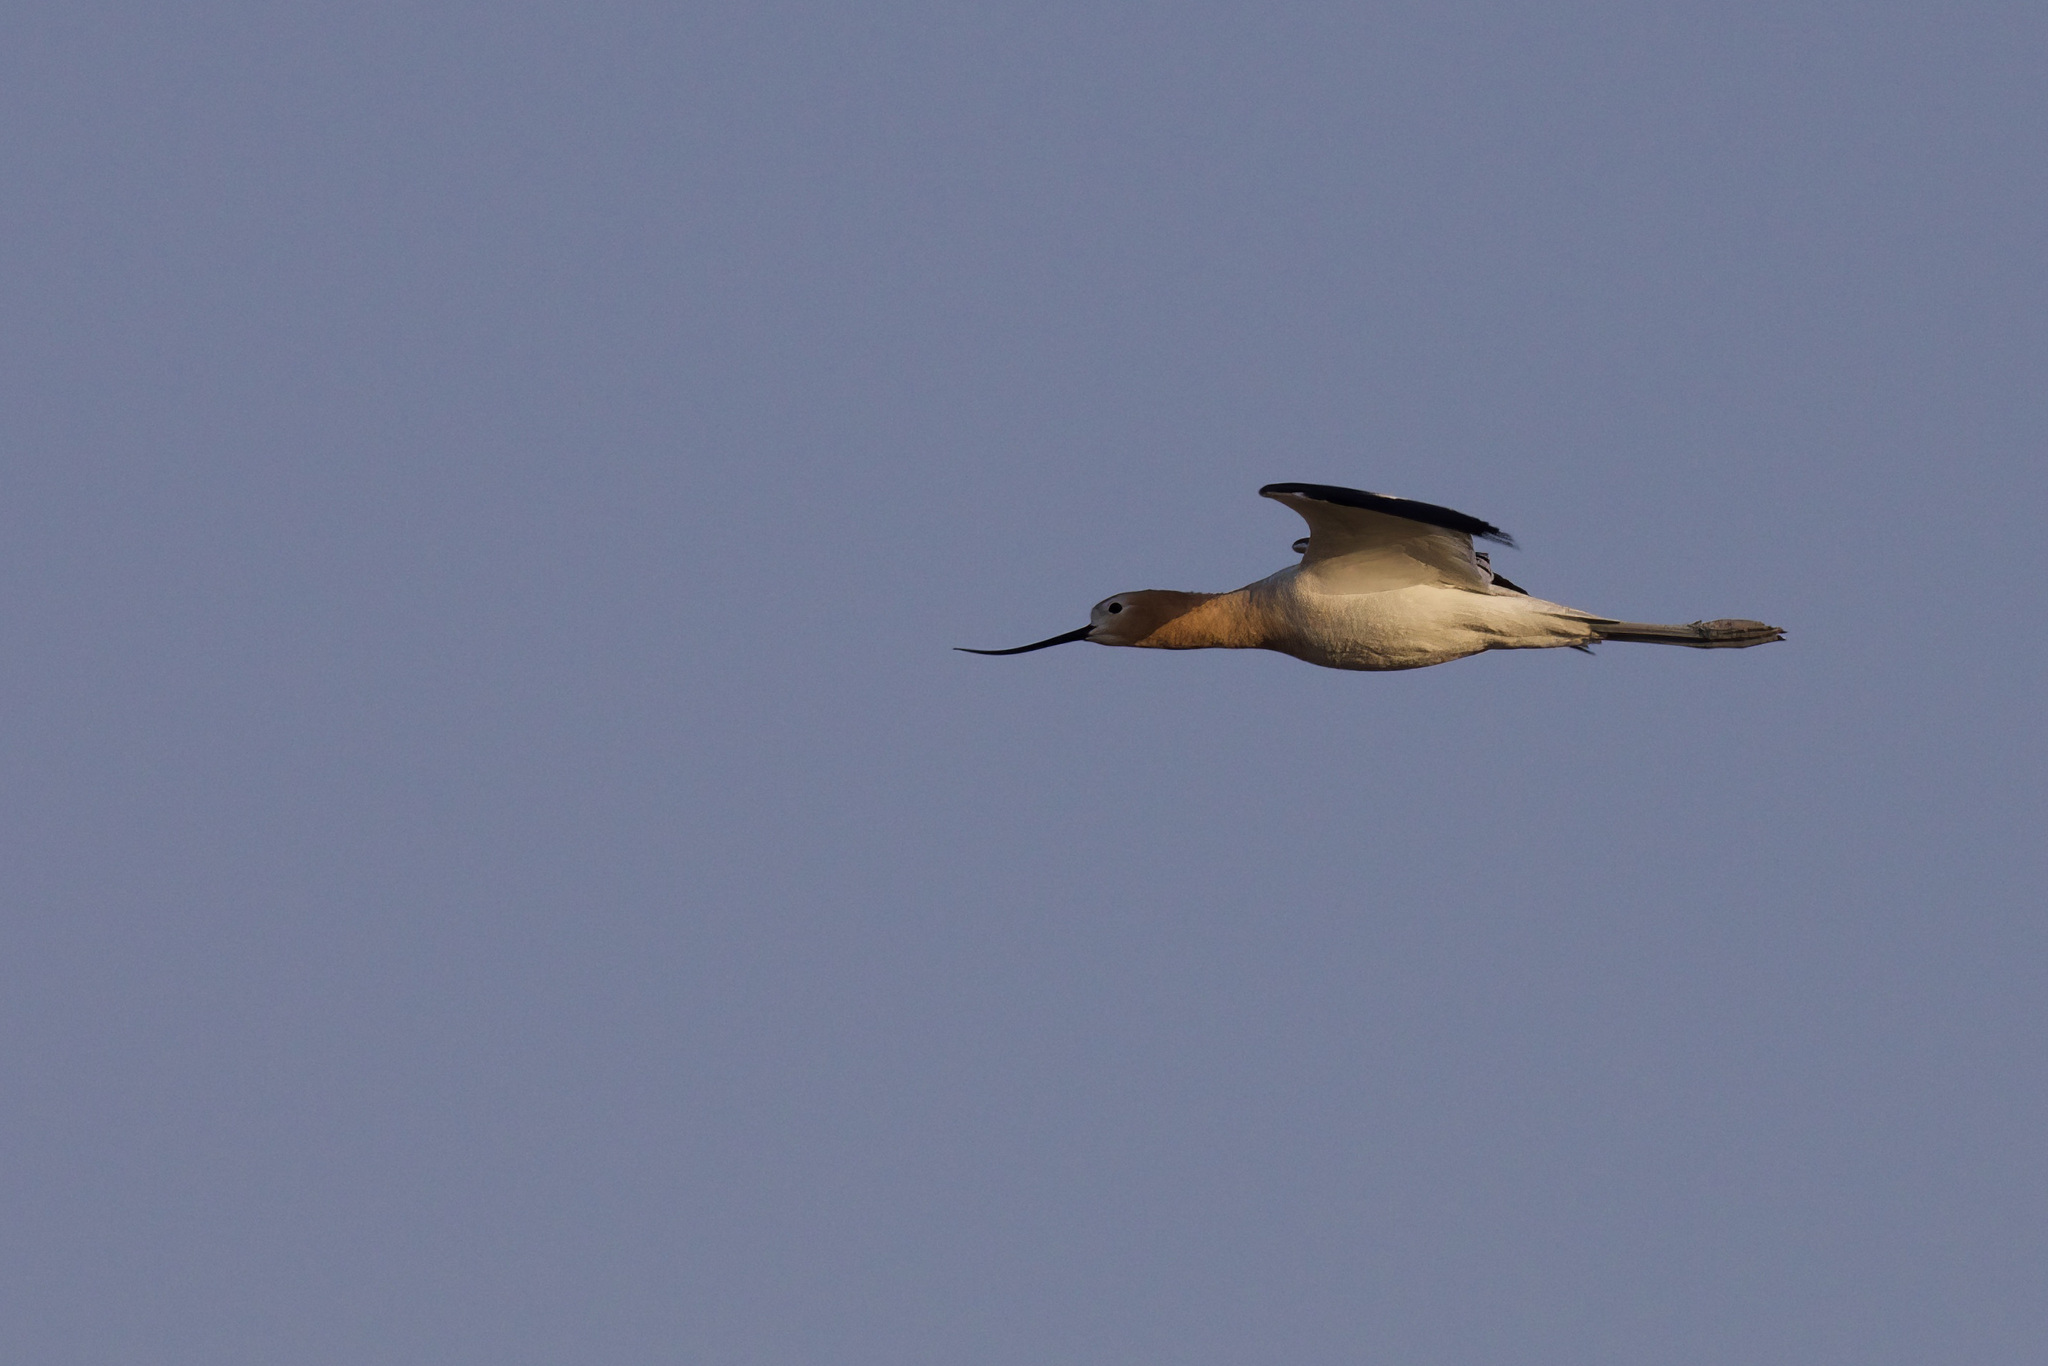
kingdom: Animalia
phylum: Chordata
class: Aves
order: Charadriiformes
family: Recurvirostridae
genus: Recurvirostra
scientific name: Recurvirostra americana
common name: American avocet
